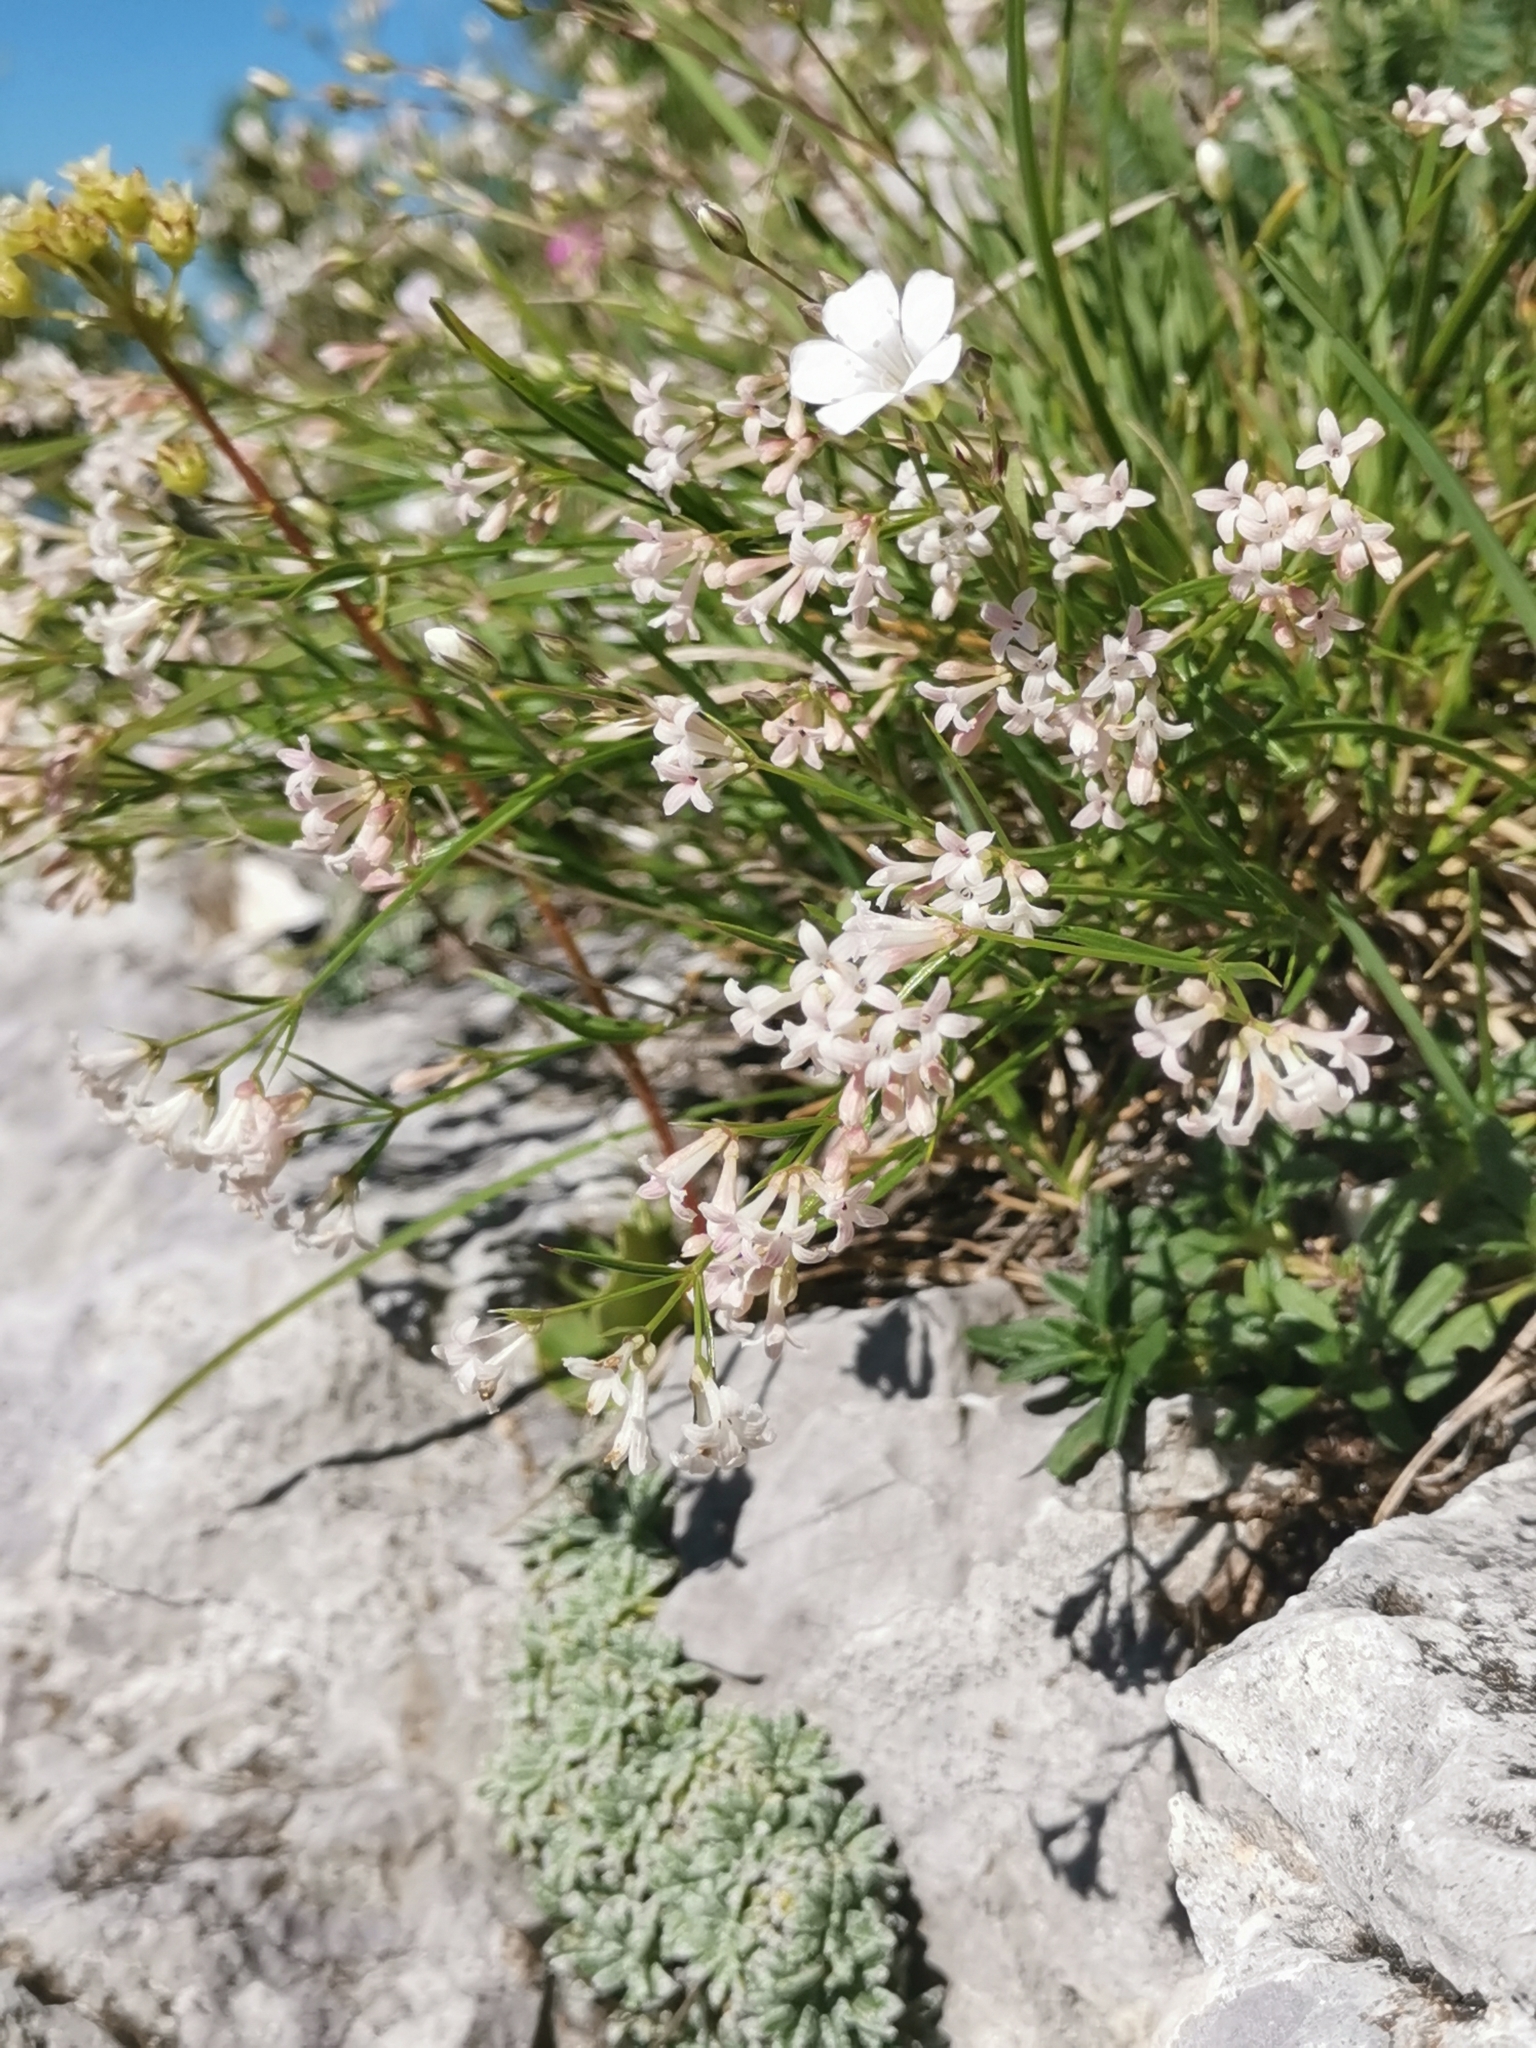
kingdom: Plantae
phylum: Tracheophyta
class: Magnoliopsida
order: Gentianales
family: Rubiaceae
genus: Cynanchica
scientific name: Cynanchica aristata
